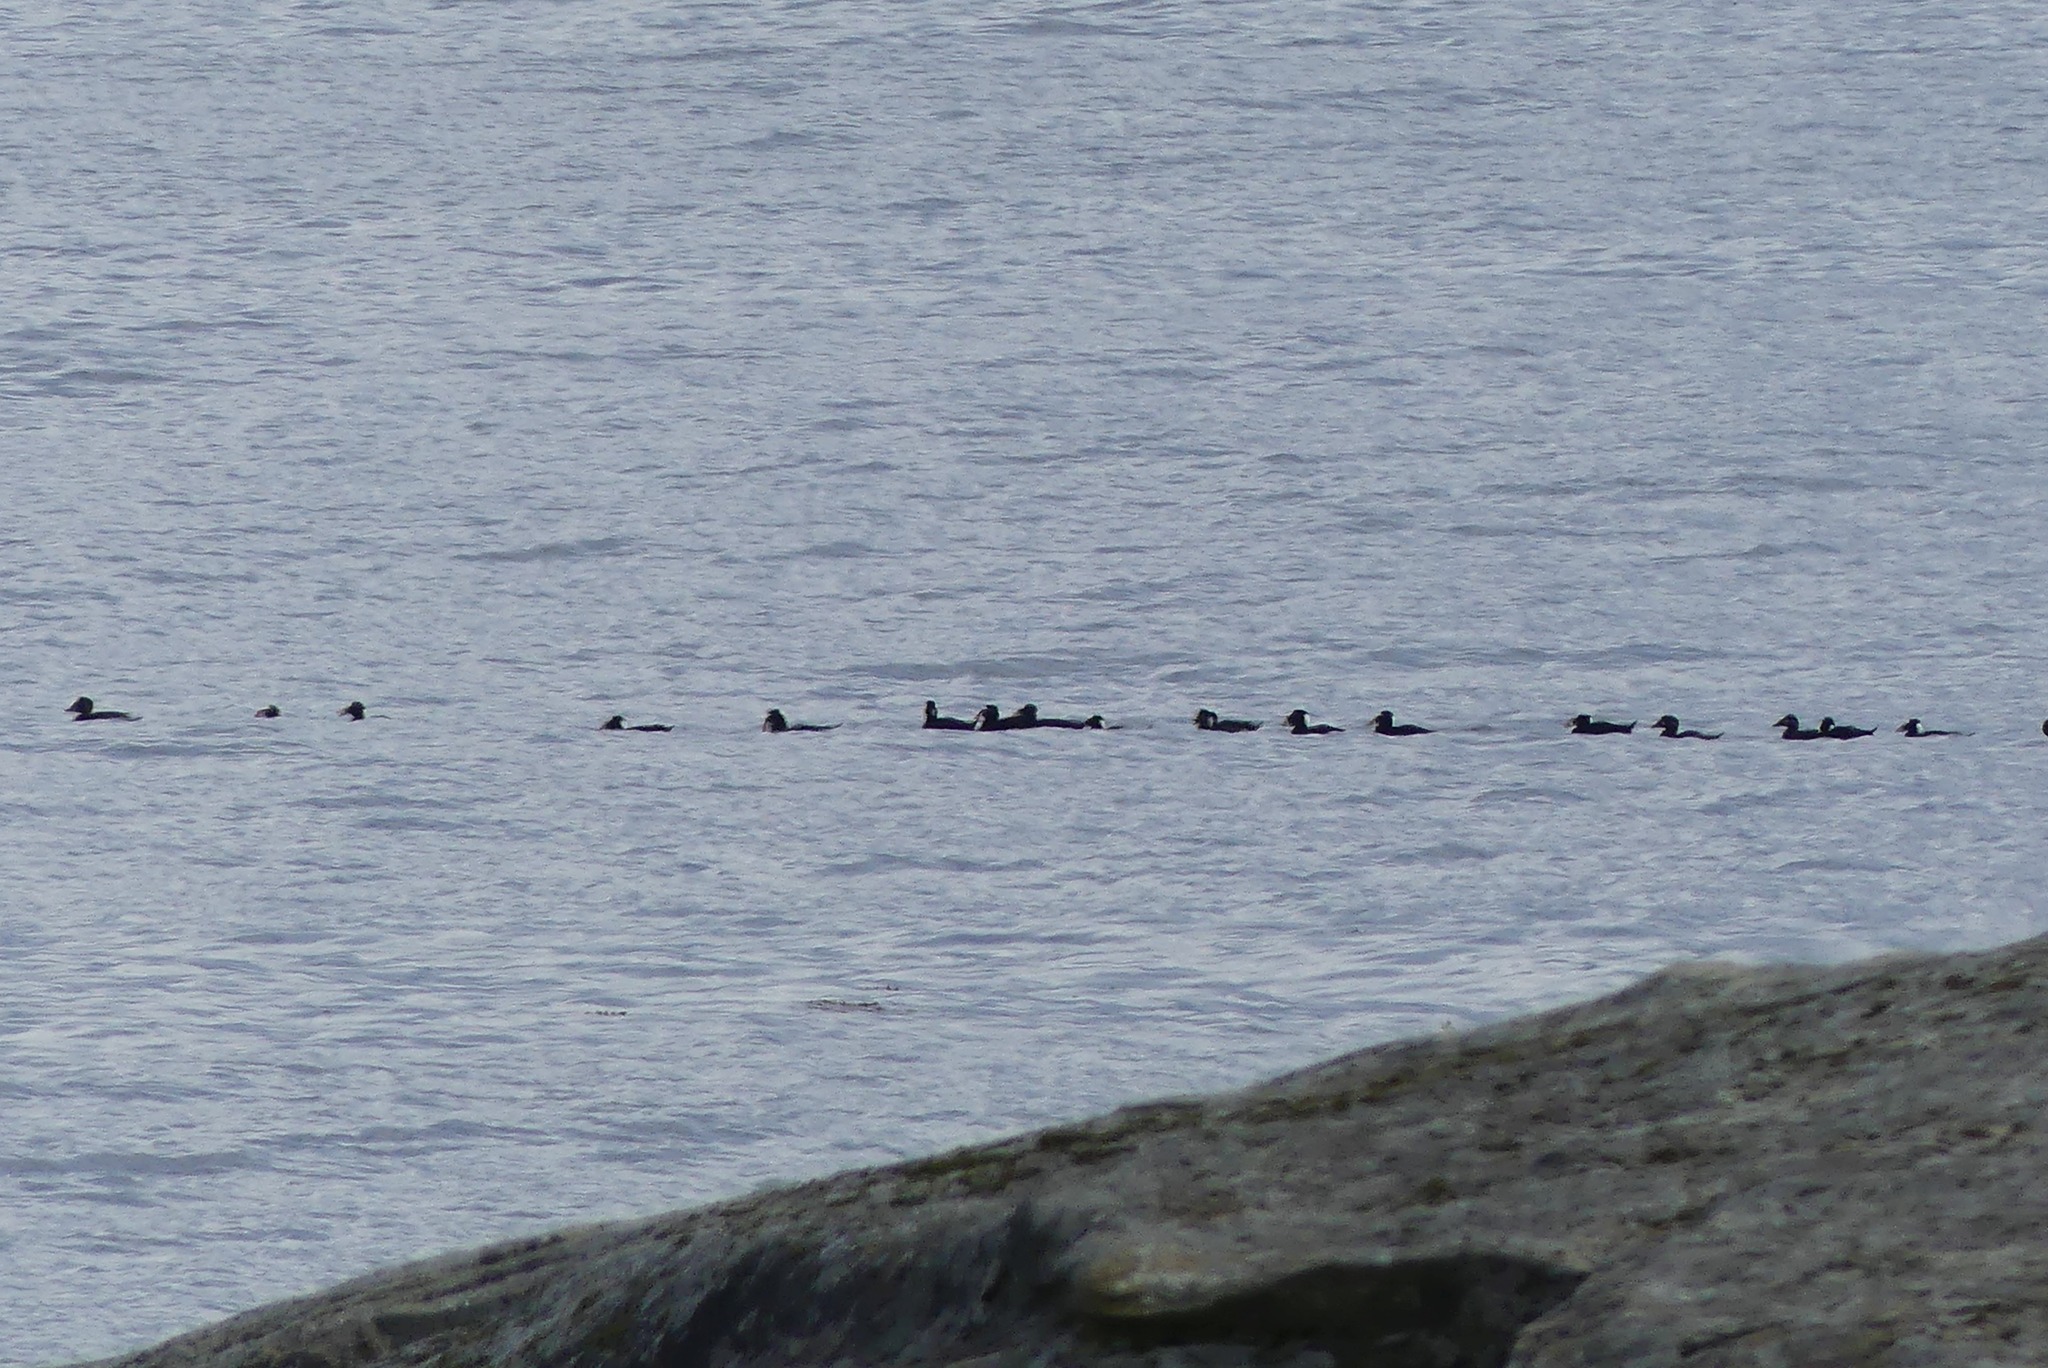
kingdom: Animalia
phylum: Chordata
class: Aves
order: Anseriformes
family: Anatidae
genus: Melanitta
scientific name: Melanitta perspicillata
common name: Surf scoter
